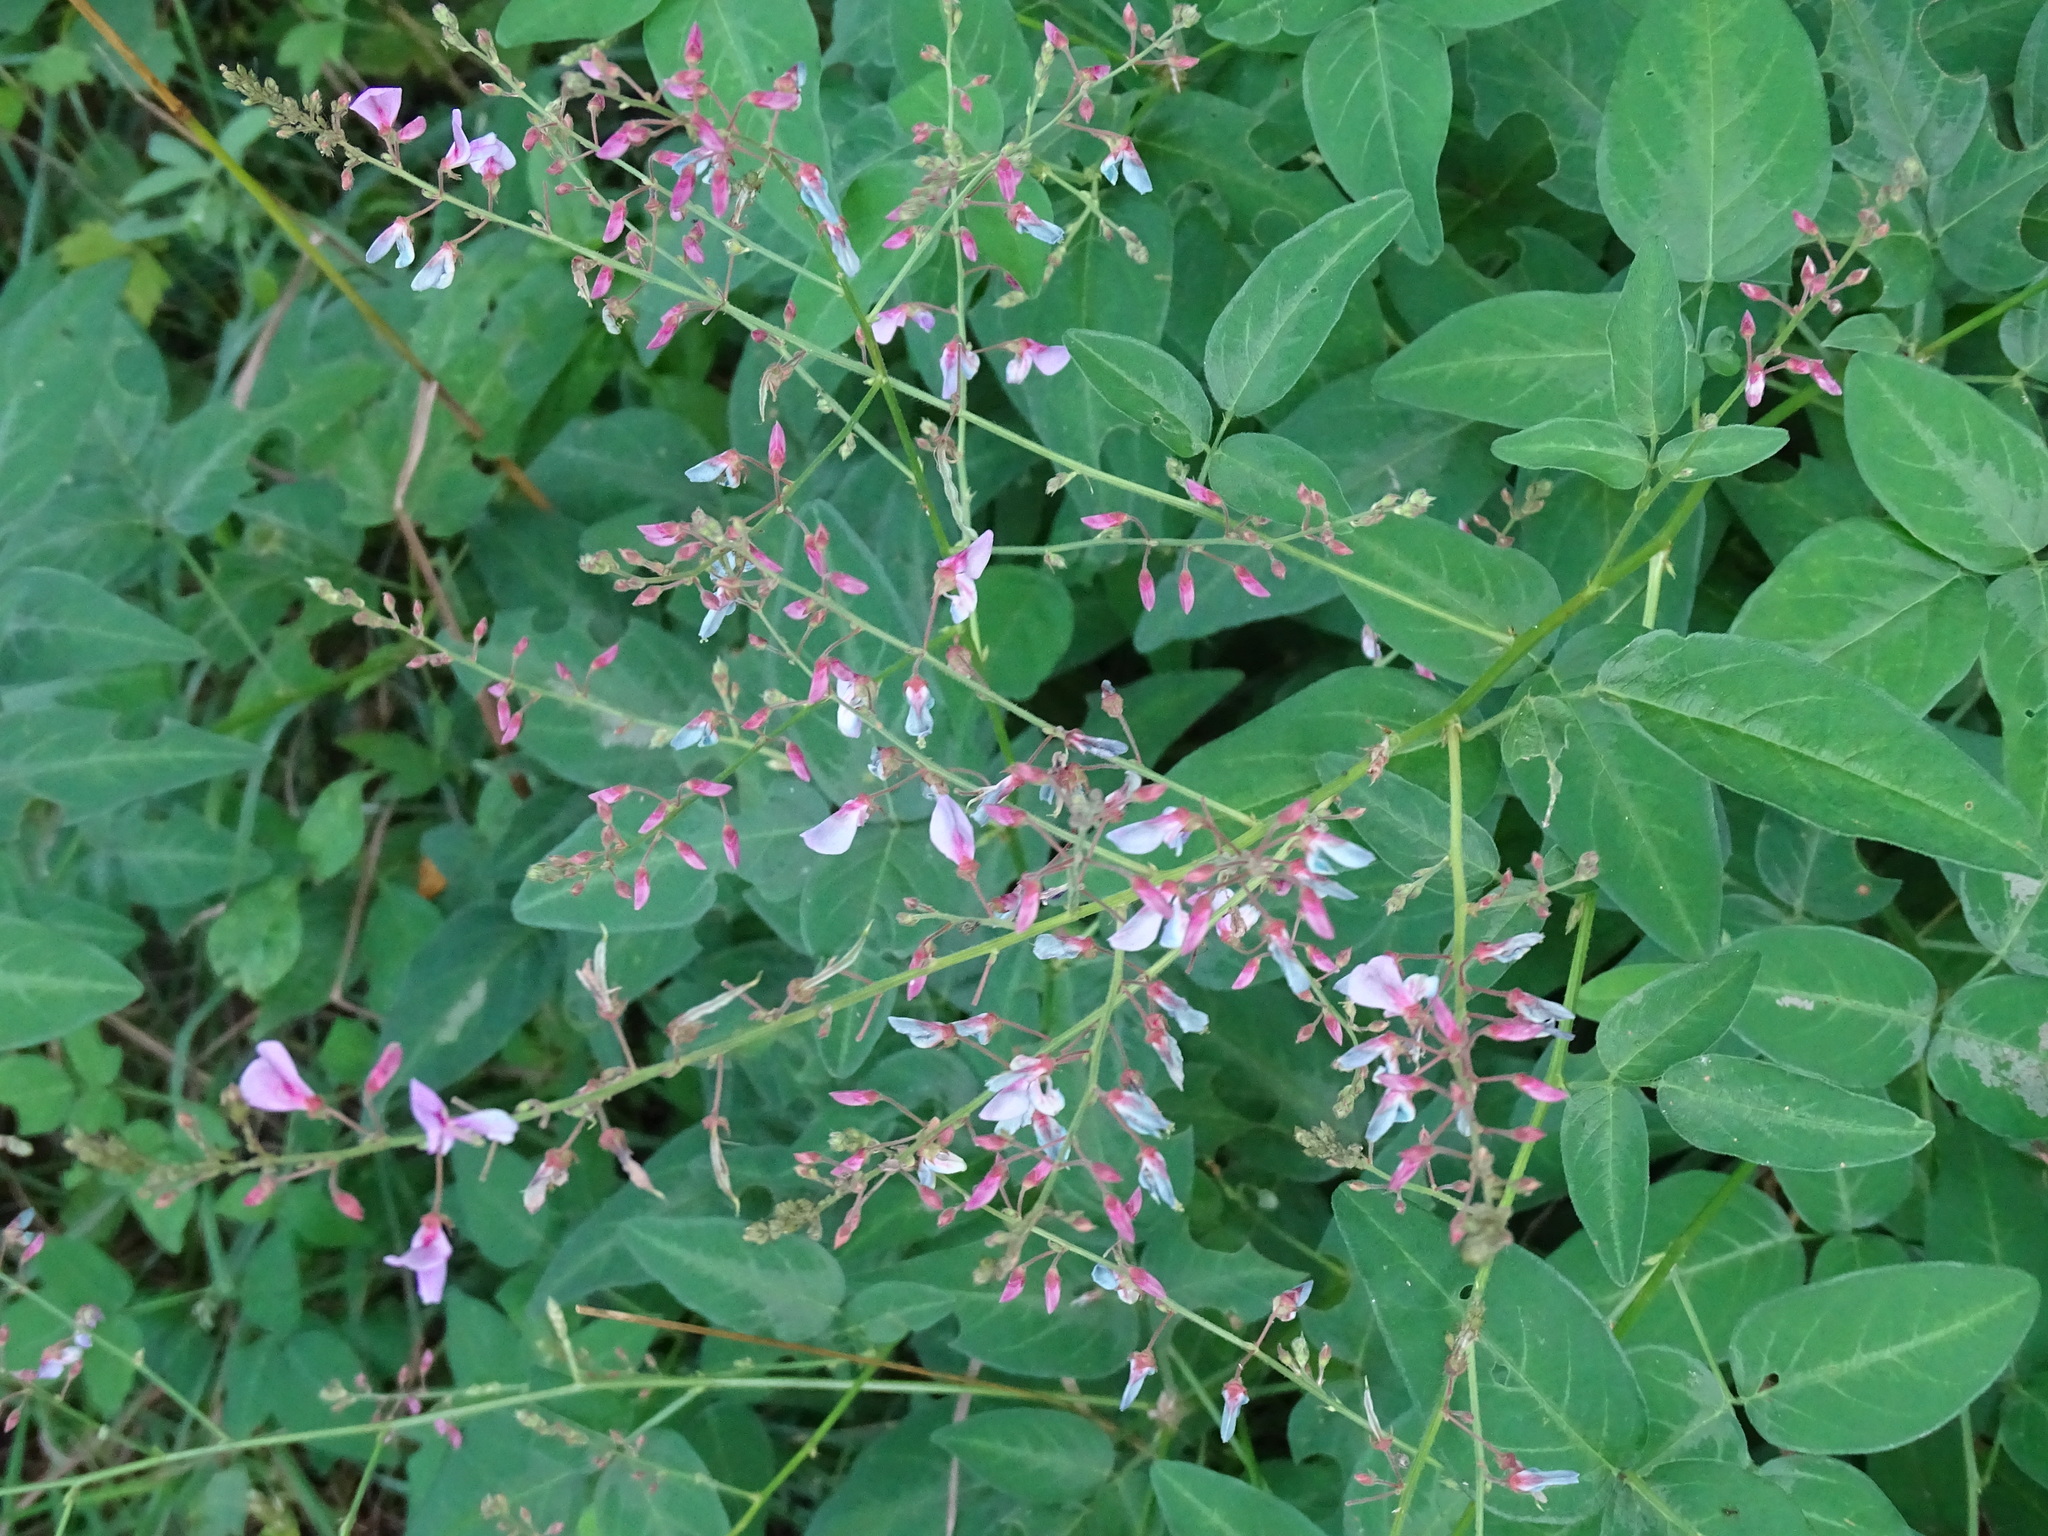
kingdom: Plantae
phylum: Tracheophyta
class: Magnoliopsida
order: Fabales
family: Fabaceae
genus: Desmodium
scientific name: Desmodium perplexum
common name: Perplexed tick trefoil
